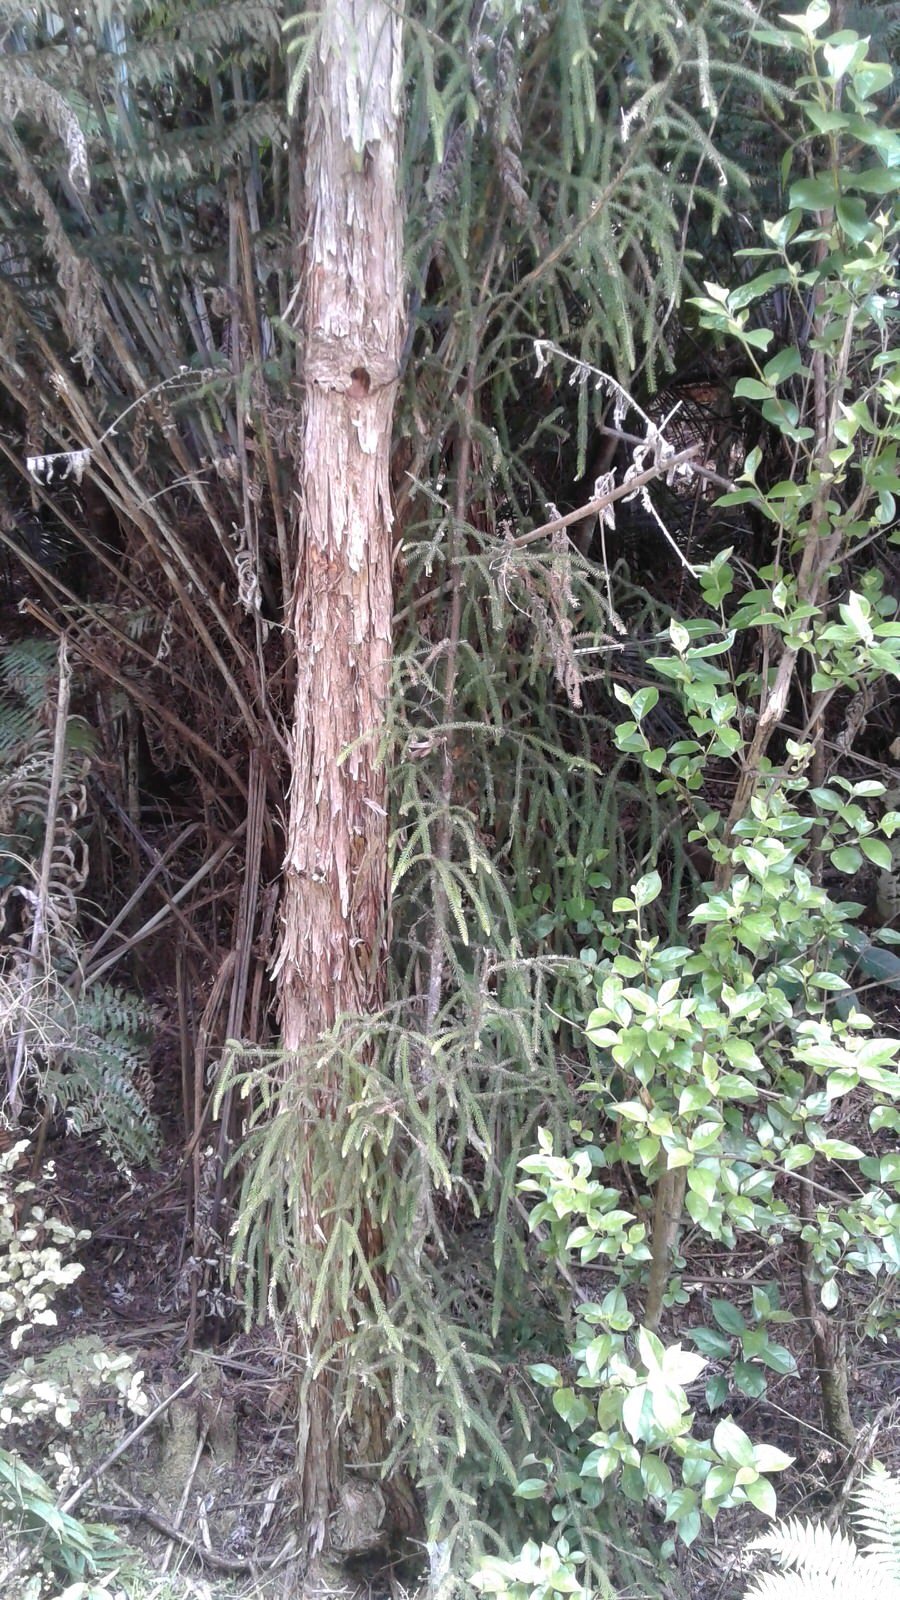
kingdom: Plantae
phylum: Tracheophyta
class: Pinopsida
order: Pinales
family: Podocarpaceae
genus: Dacrydium
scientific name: Dacrydium cupressinum
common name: Red pine
